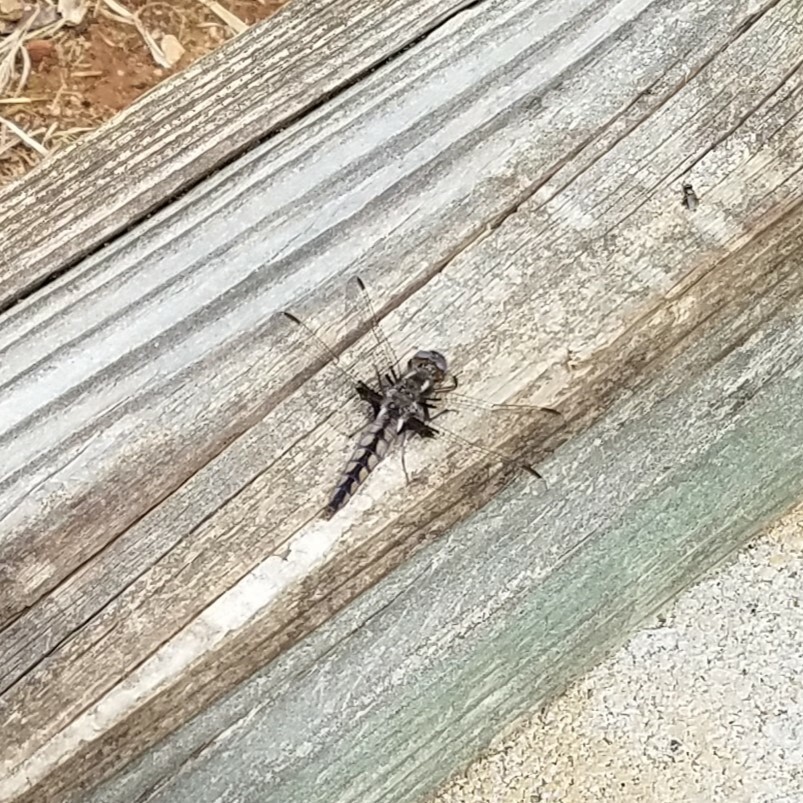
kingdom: Animalia
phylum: Arthropoda
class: Insecta
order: Odonata
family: Libellulidae
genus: Ladona
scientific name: Ladona deplanata
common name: Blue corporal
